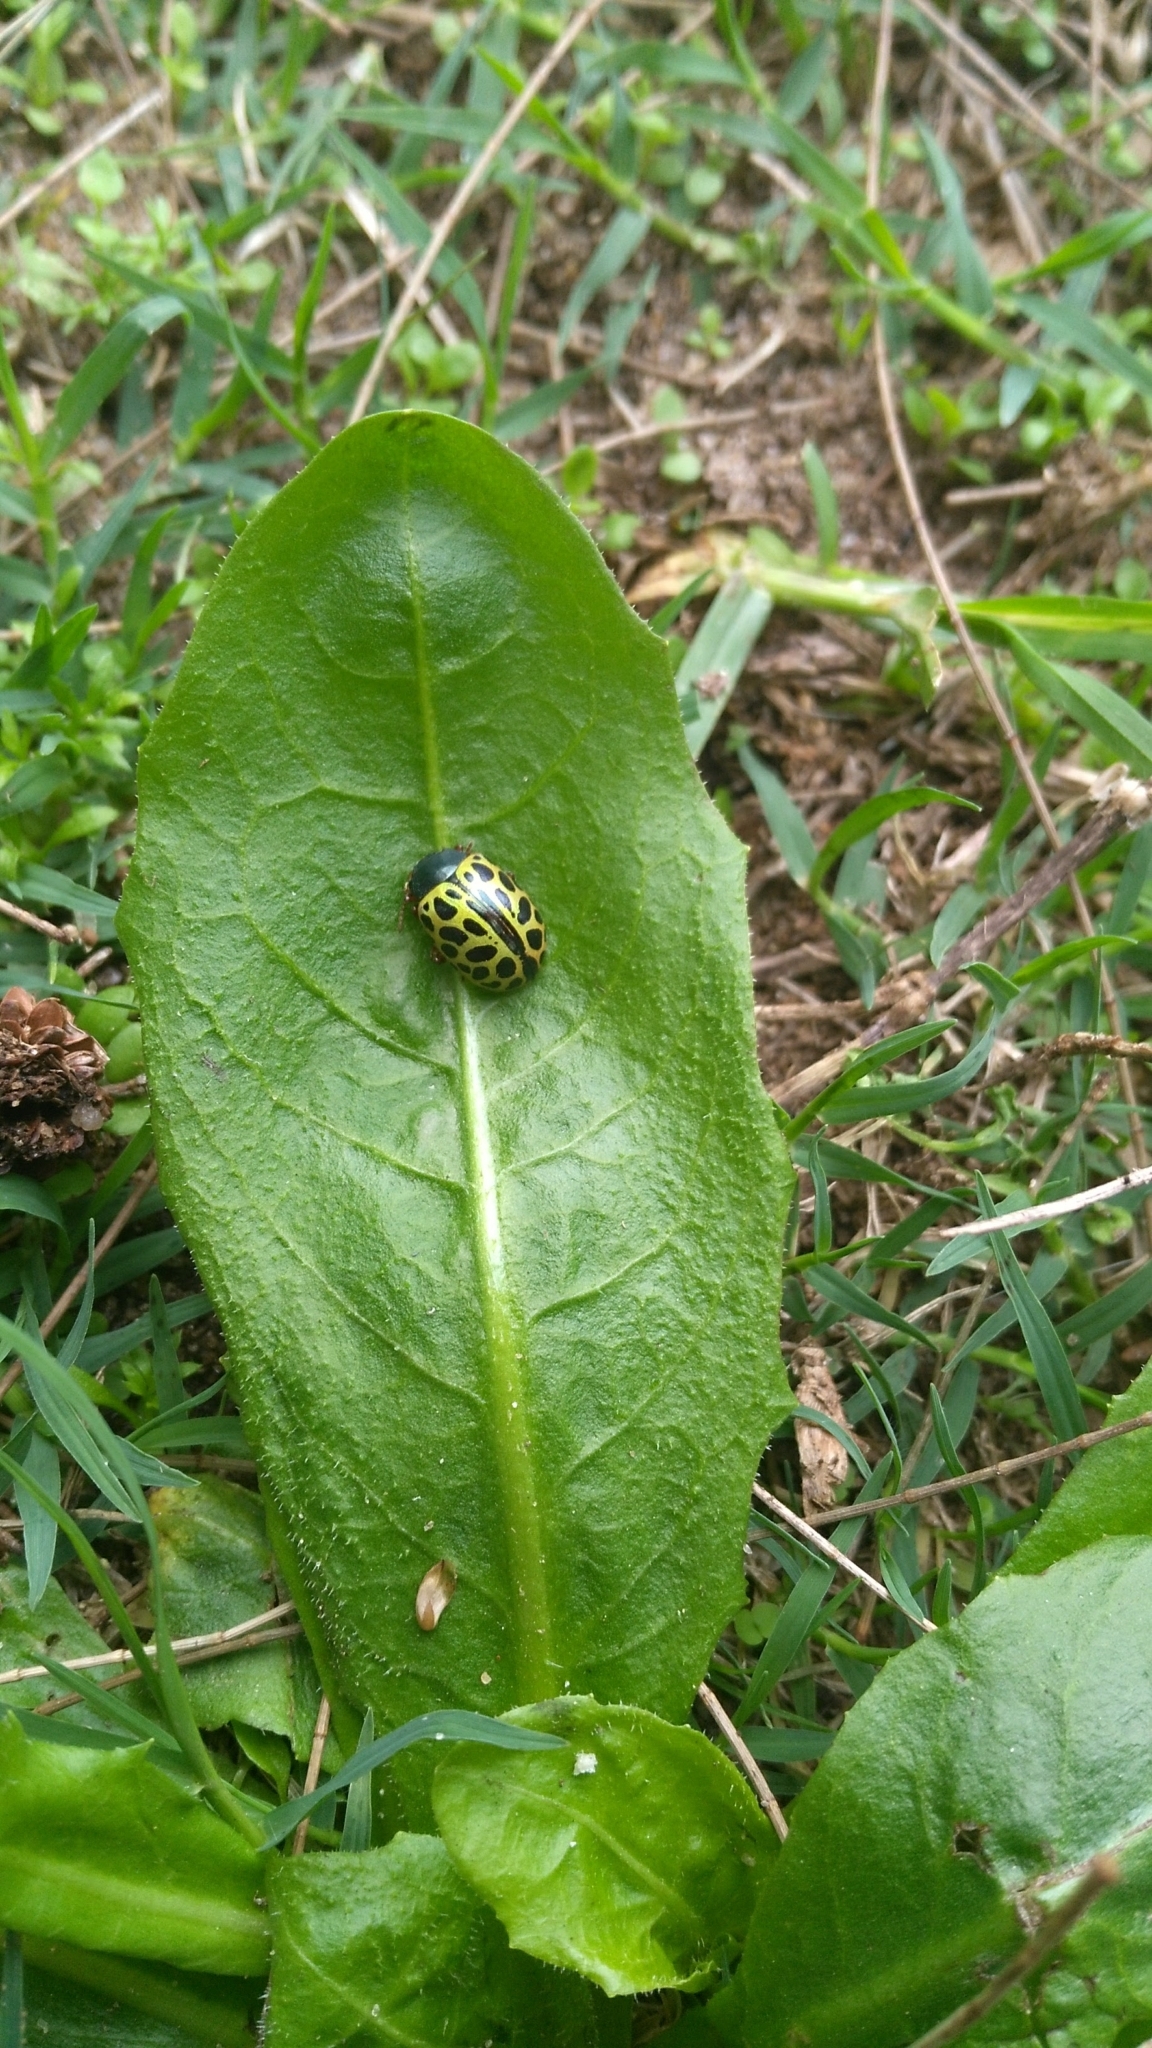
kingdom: Animalia
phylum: Arthropoda
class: Insecta
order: Coleoptera
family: Chrysomelidae
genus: Calligrapha
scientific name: Calligrapha polyspila
